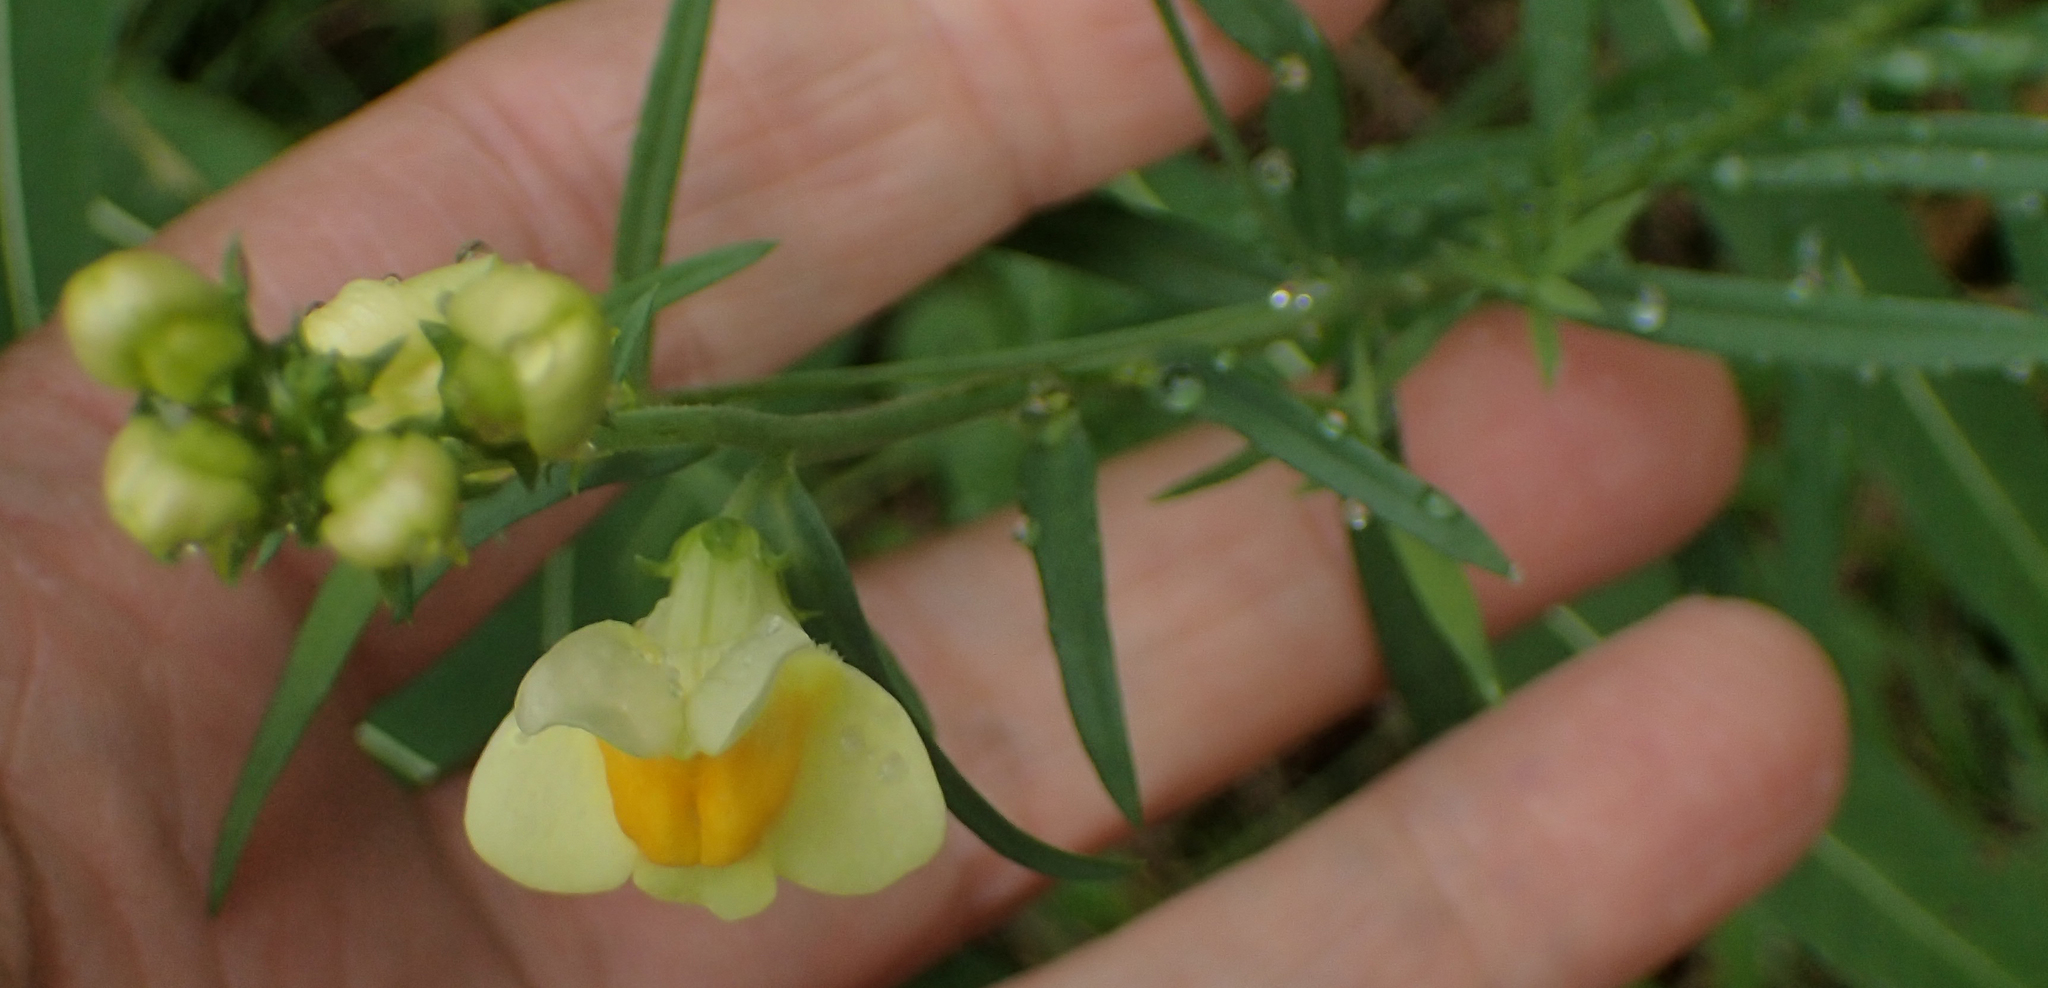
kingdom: Plantae
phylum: Tracheophyta
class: Magnoliopsida
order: Lamiales
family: Plantaginaceae
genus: Linaria
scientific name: Linaria vulgaris
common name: Butter and eggs
